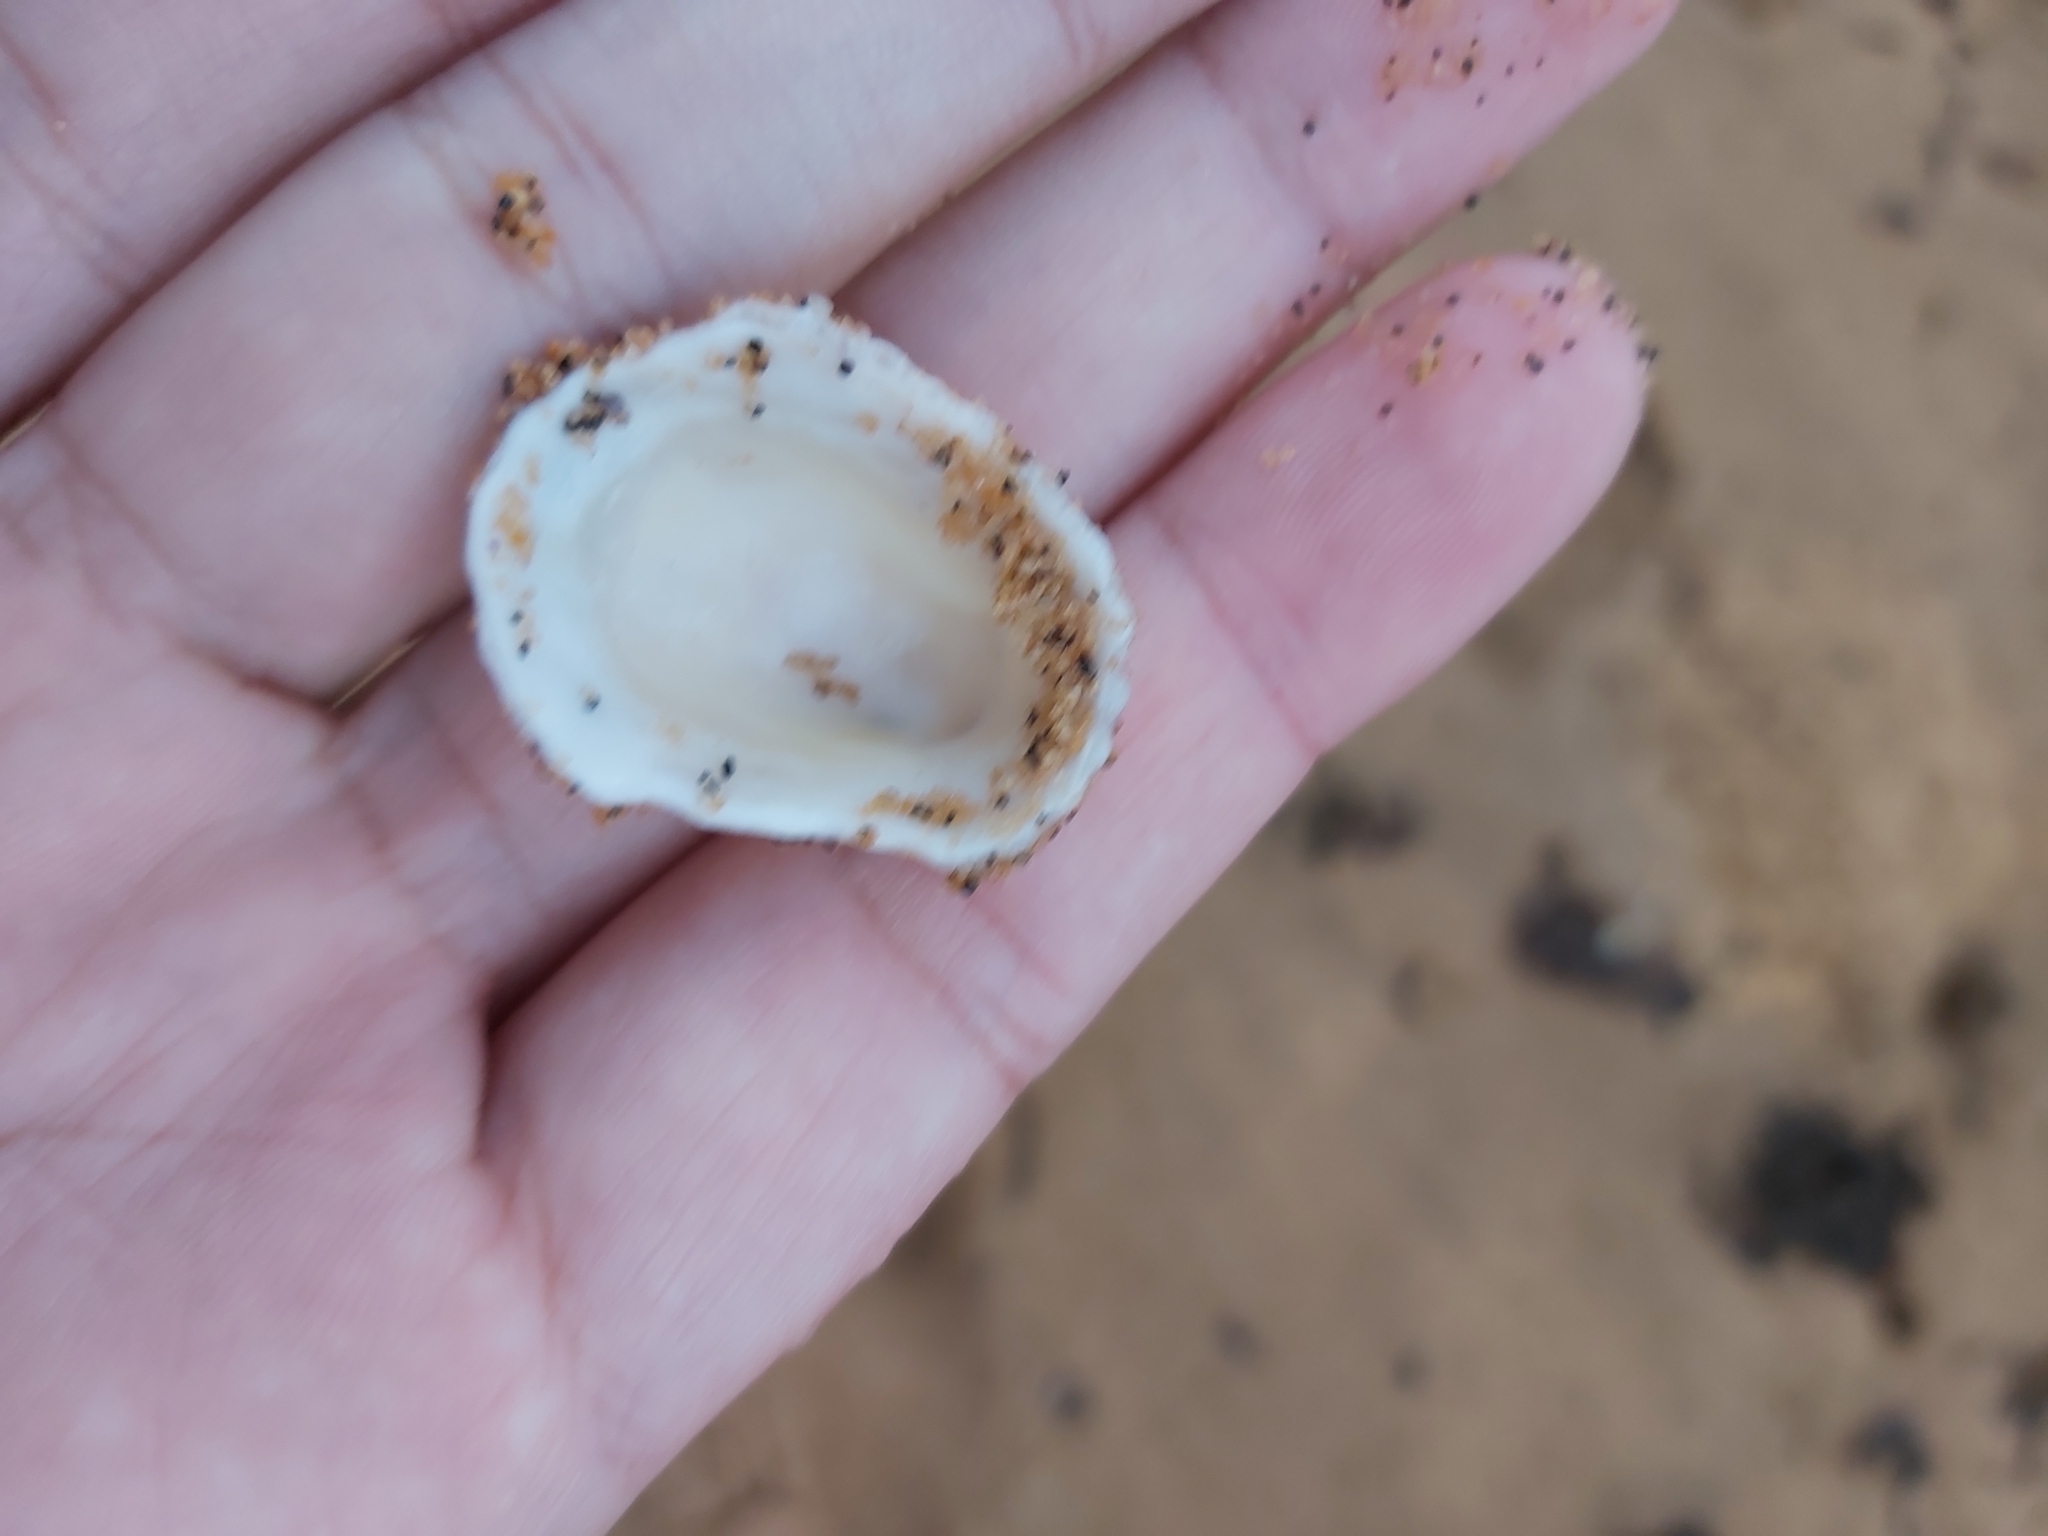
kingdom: Animalia
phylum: Mollusca
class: Gastropoda
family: Patellidae
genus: Scutellastra
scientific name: Scutellastra peronii
